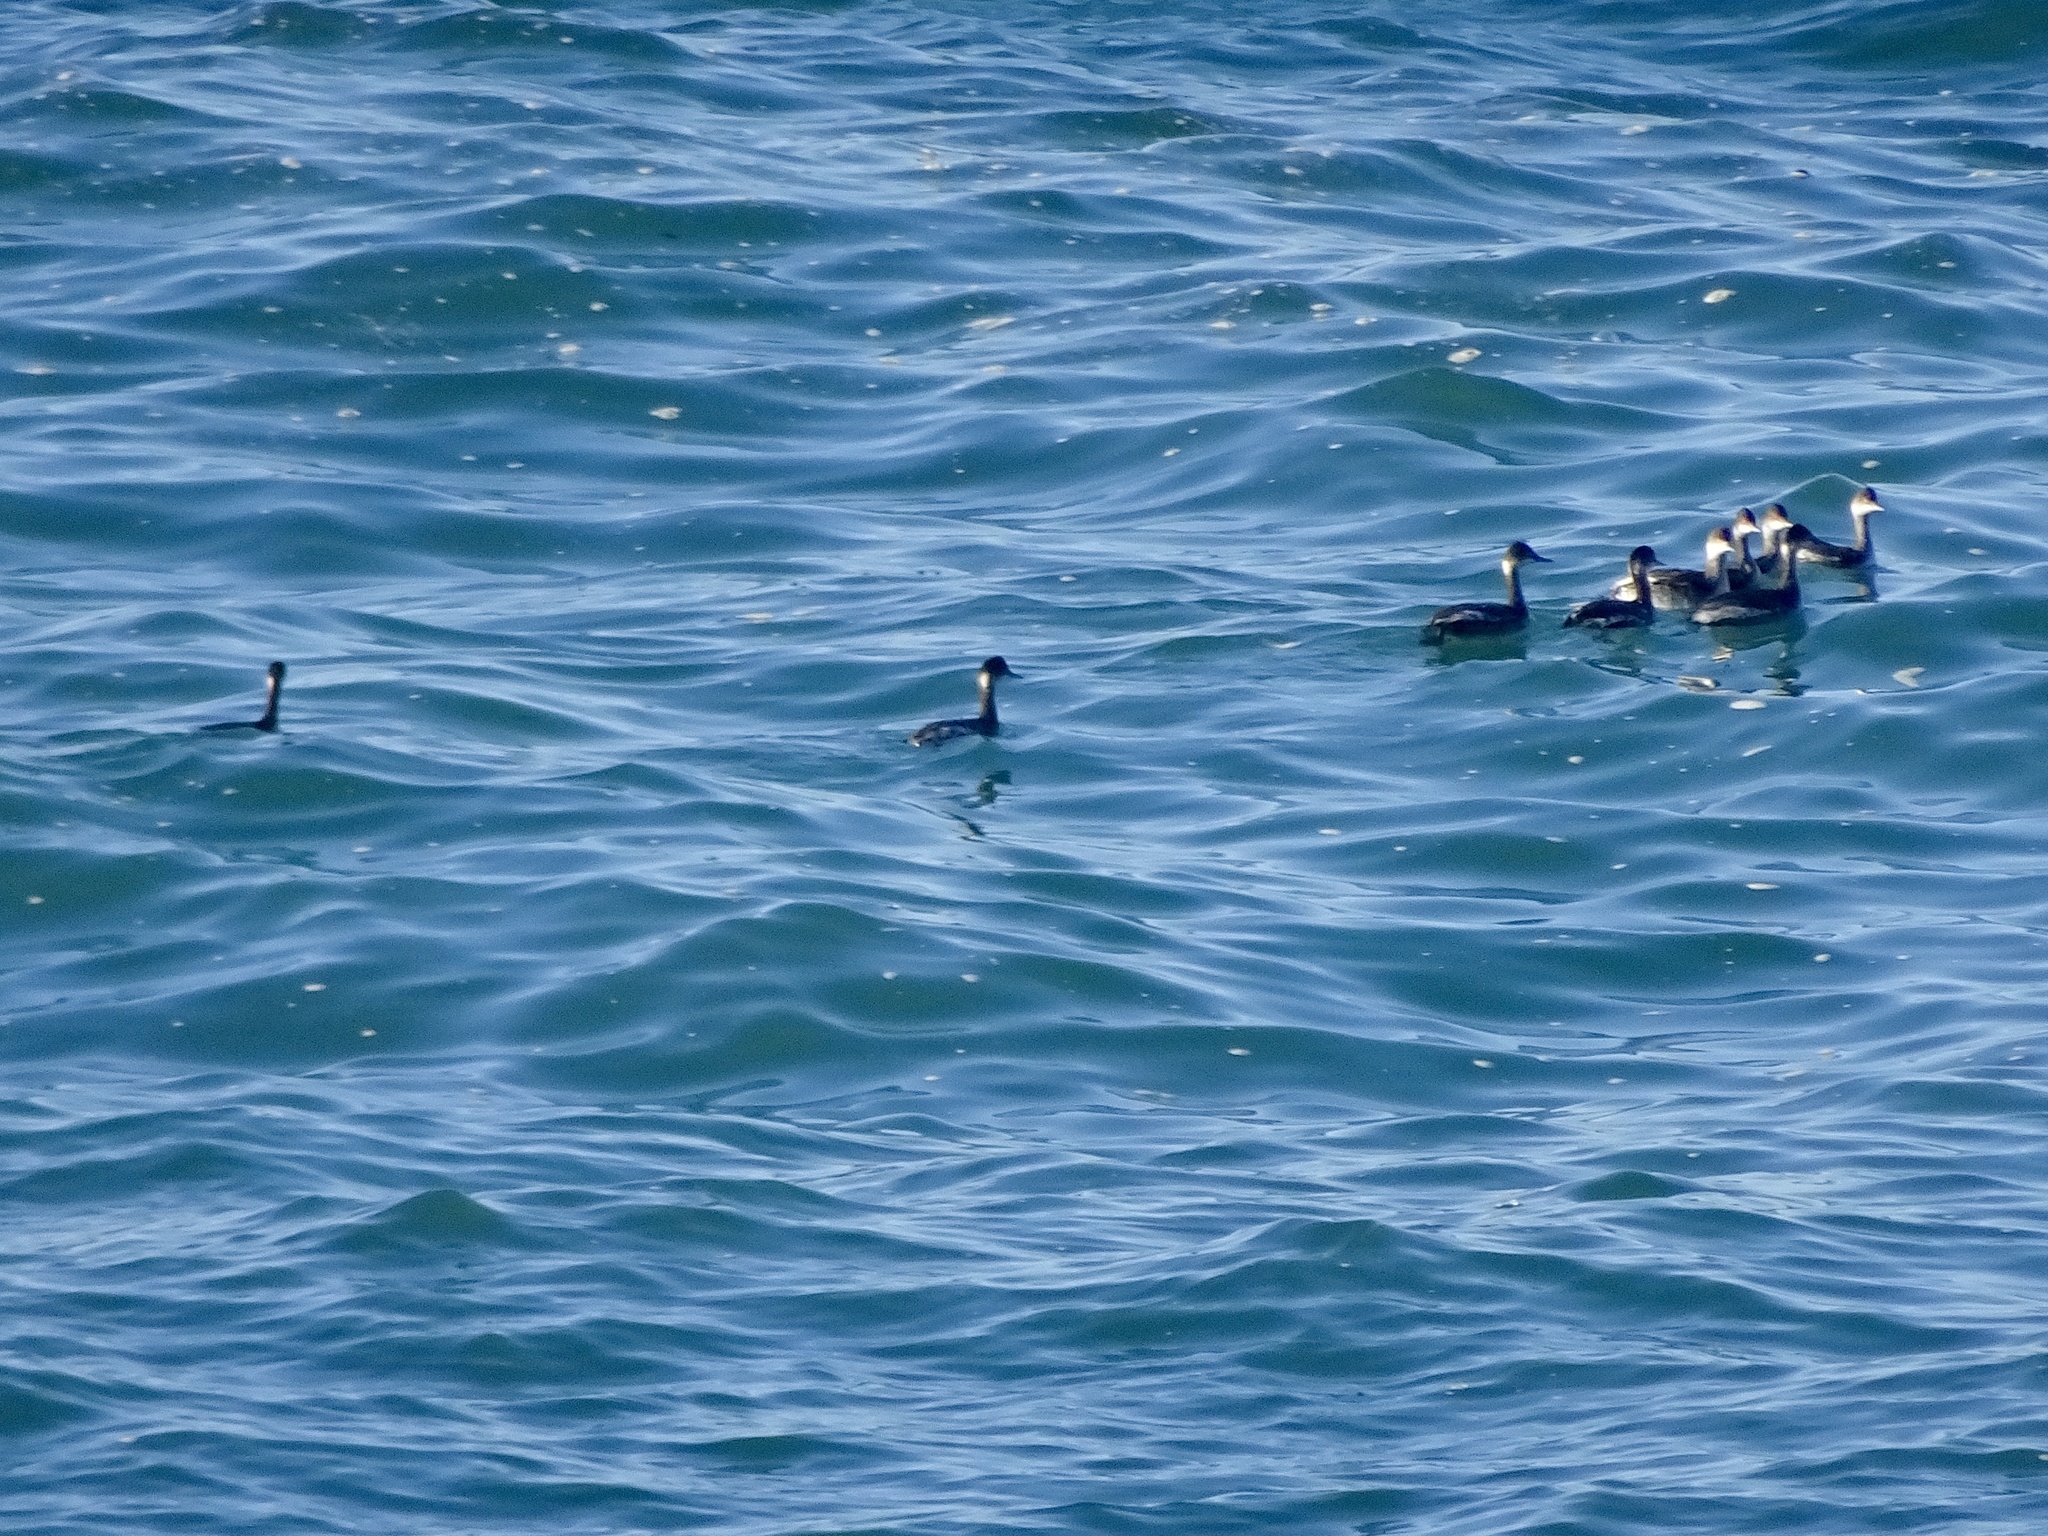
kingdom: Animalia
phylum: Chordata
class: Aves
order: Podicipediformes
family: Podicipedidae
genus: Podiceps
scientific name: Podiceps nigricollis
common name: Black-necked grebe
